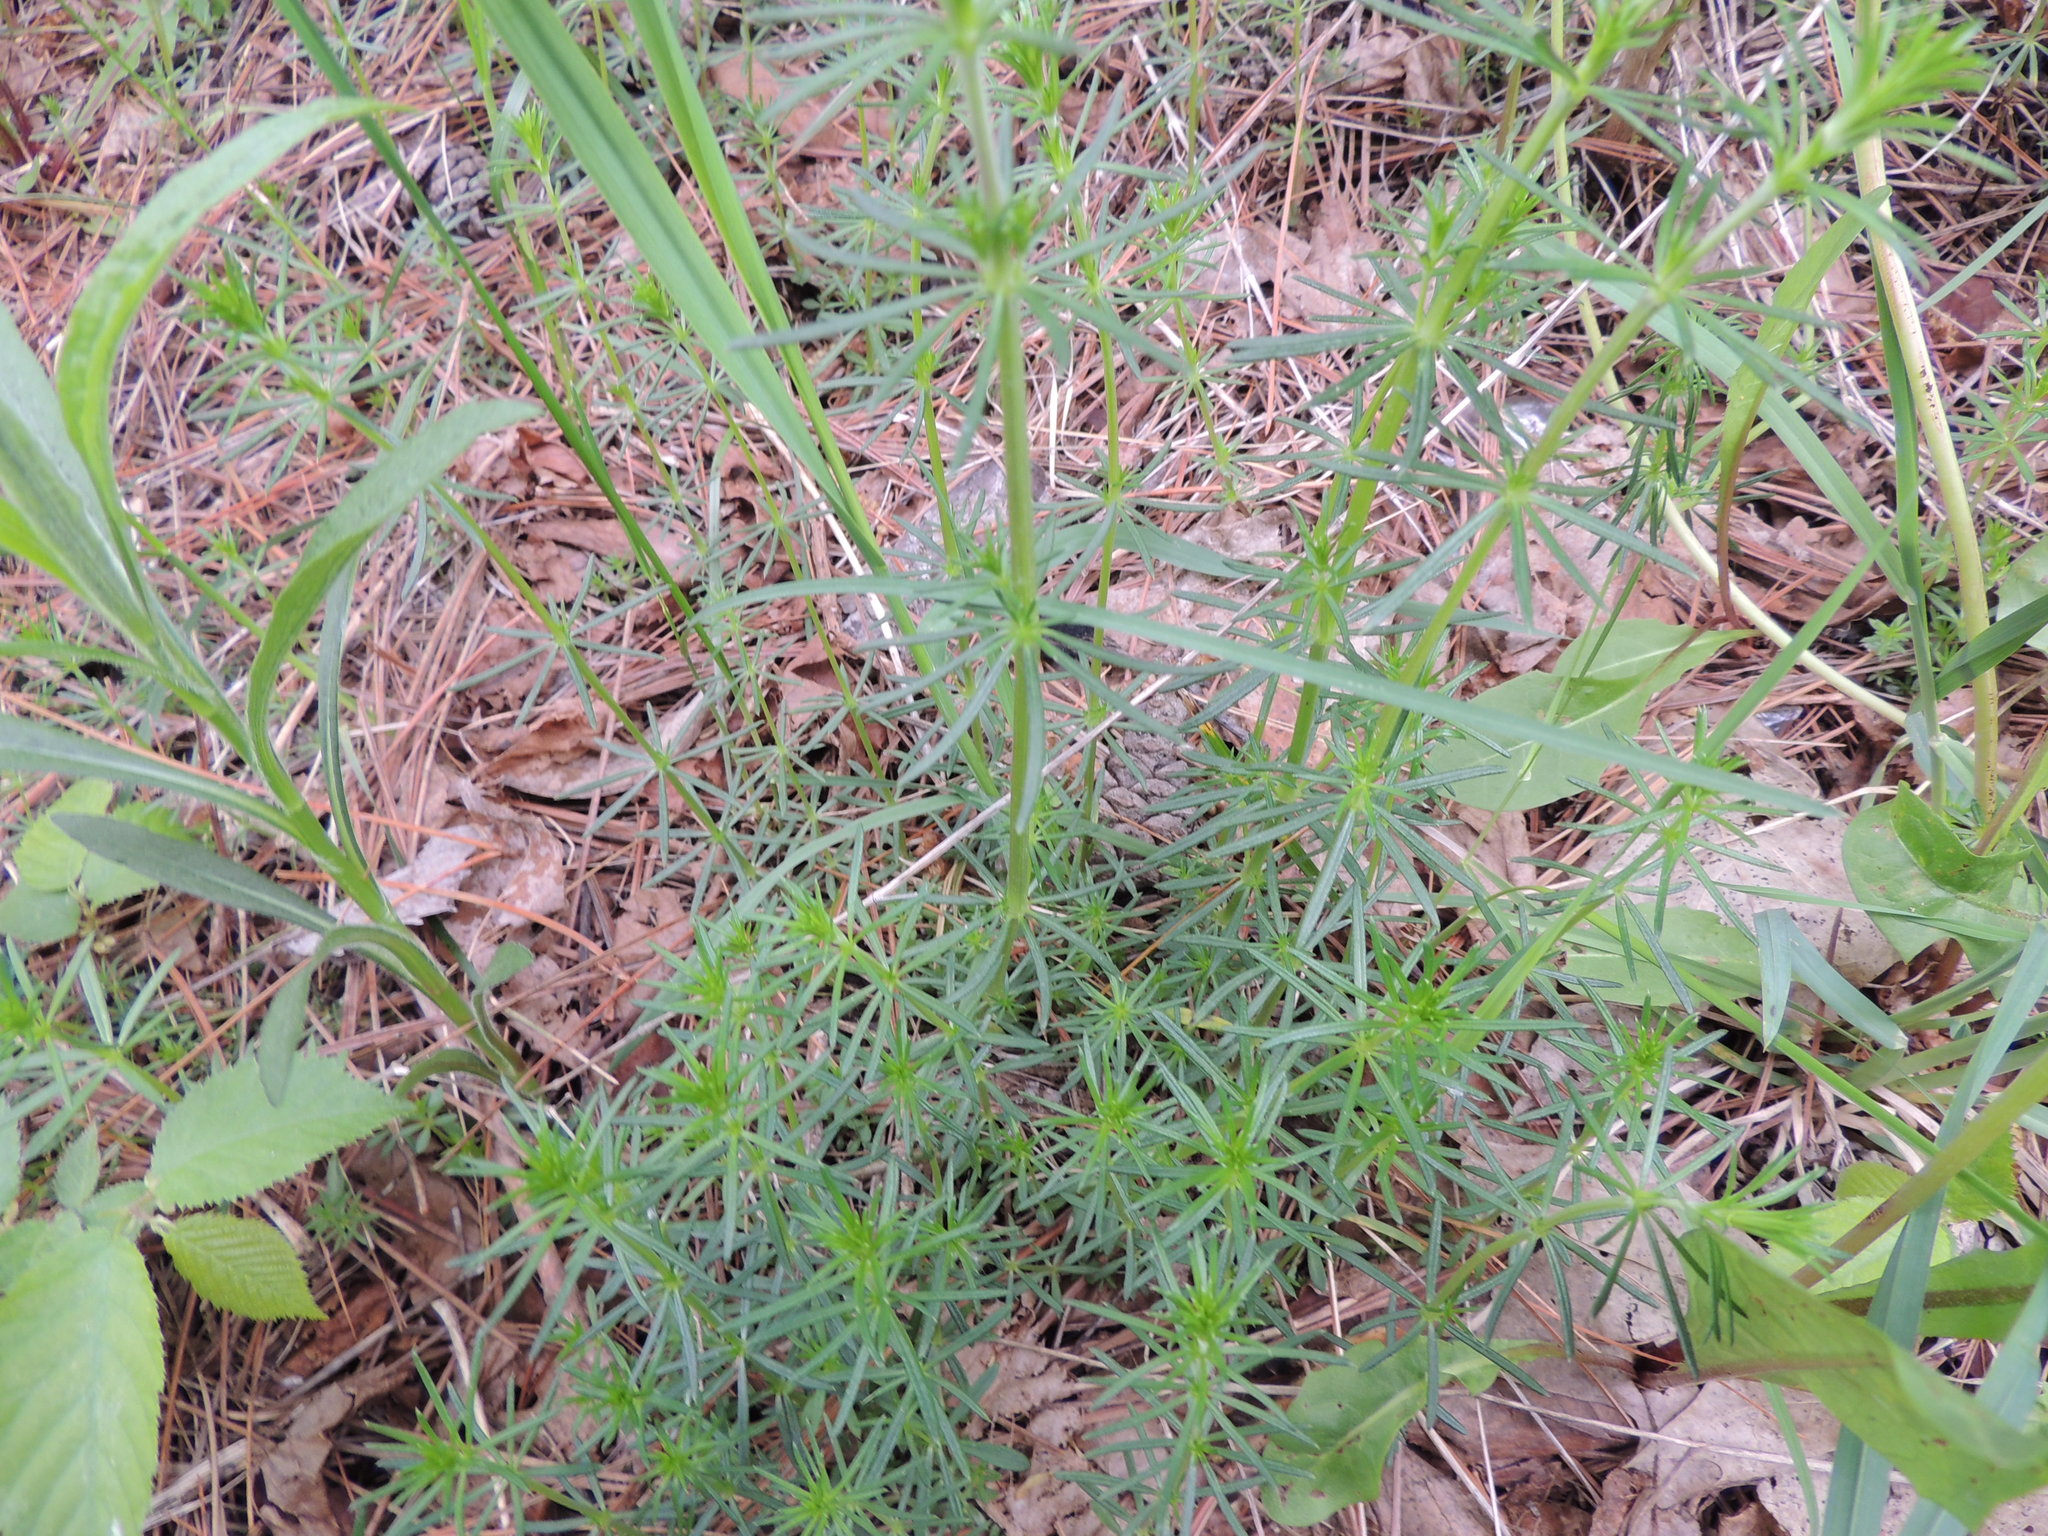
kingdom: Plantae
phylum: Tracheophyta
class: Magnoliopsida
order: Gentianales
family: Rubiaceae
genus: Galium
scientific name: Galium verum
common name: Lady's bedstraw
